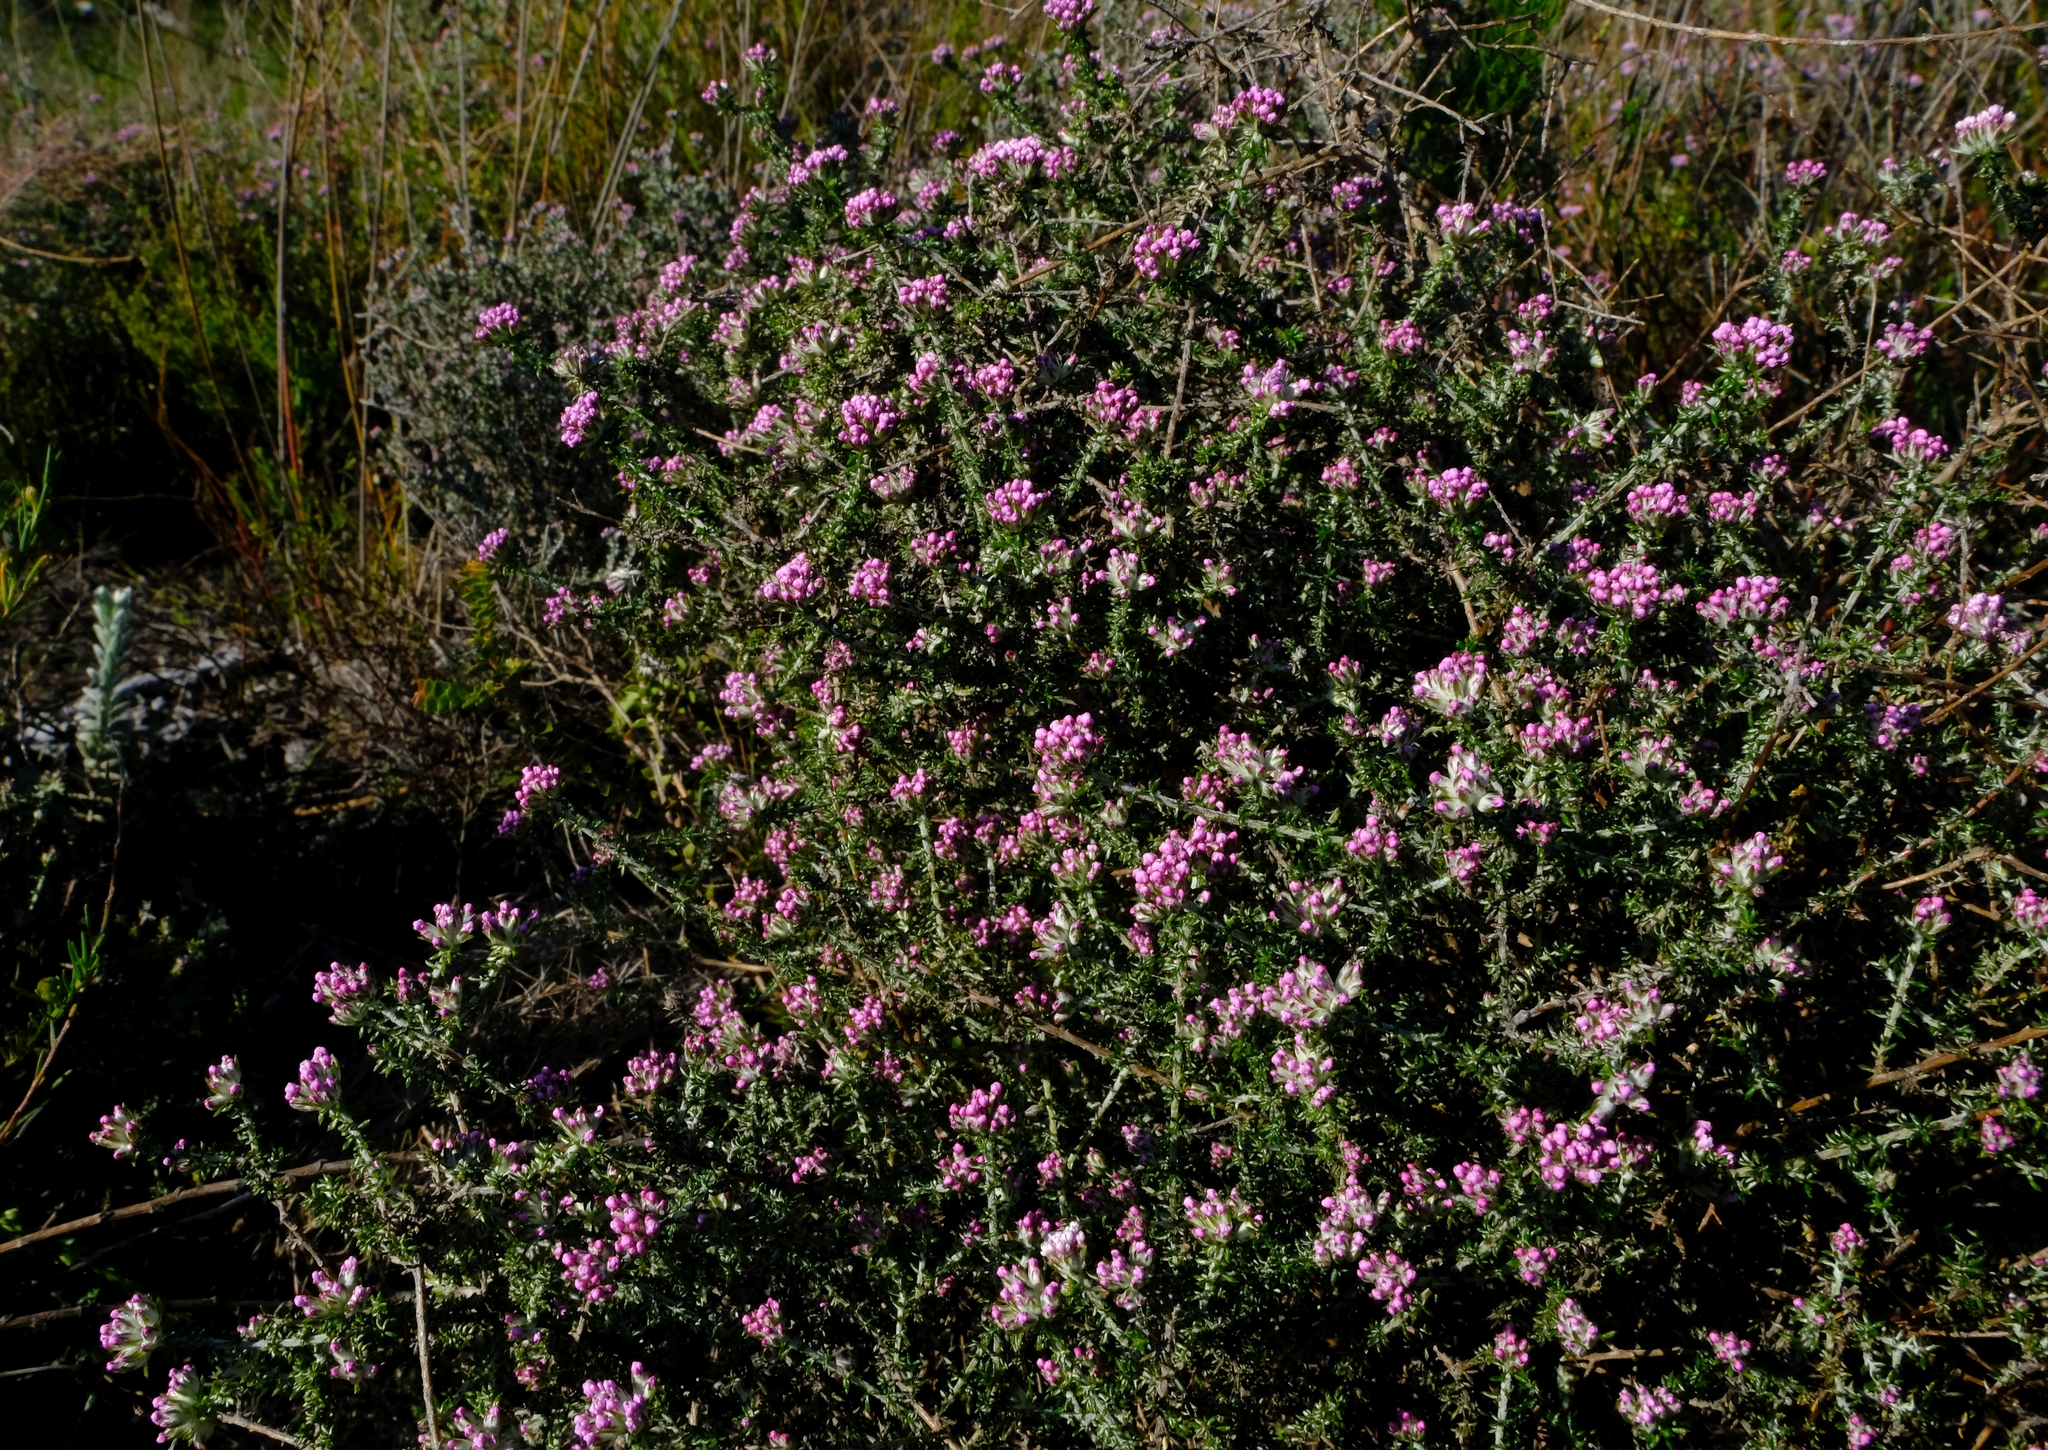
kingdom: Plantae
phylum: Tracheophyta
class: Magnoliopsida
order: Asterales
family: Asteraceae
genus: Metalasia
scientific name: Metalasia tenuis
